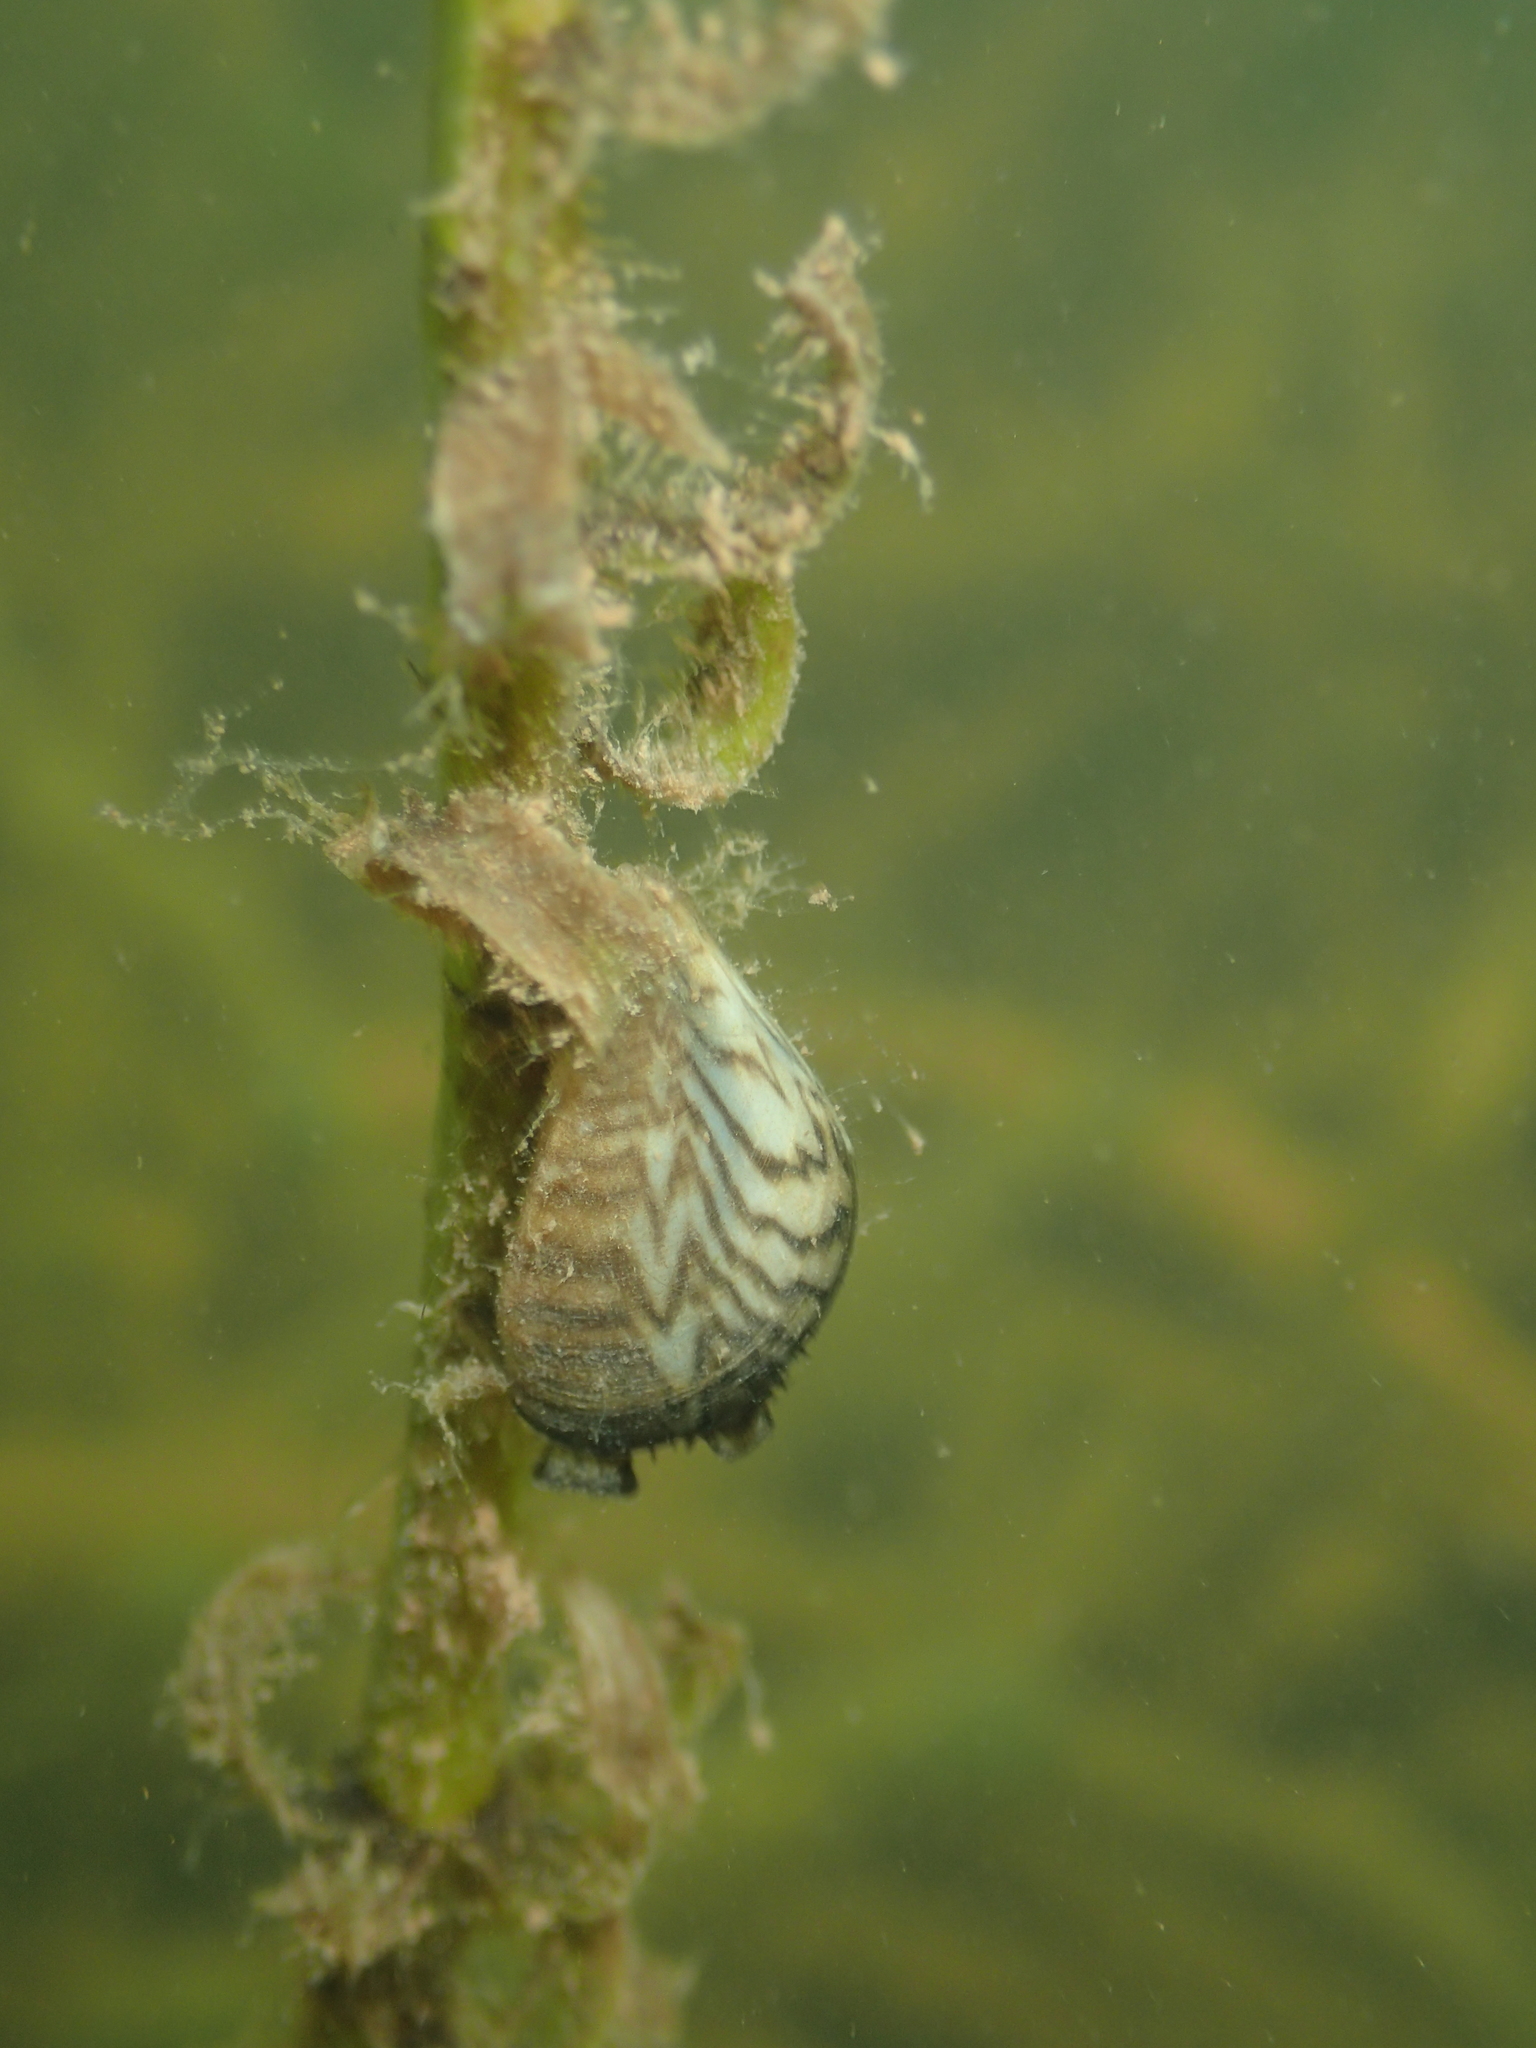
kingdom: Animalia
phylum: Mollusca
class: Bivalvia
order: Myida
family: Dreissenidae
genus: Dreissena
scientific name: Dreissena polymorpha
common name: Zebra mussel
